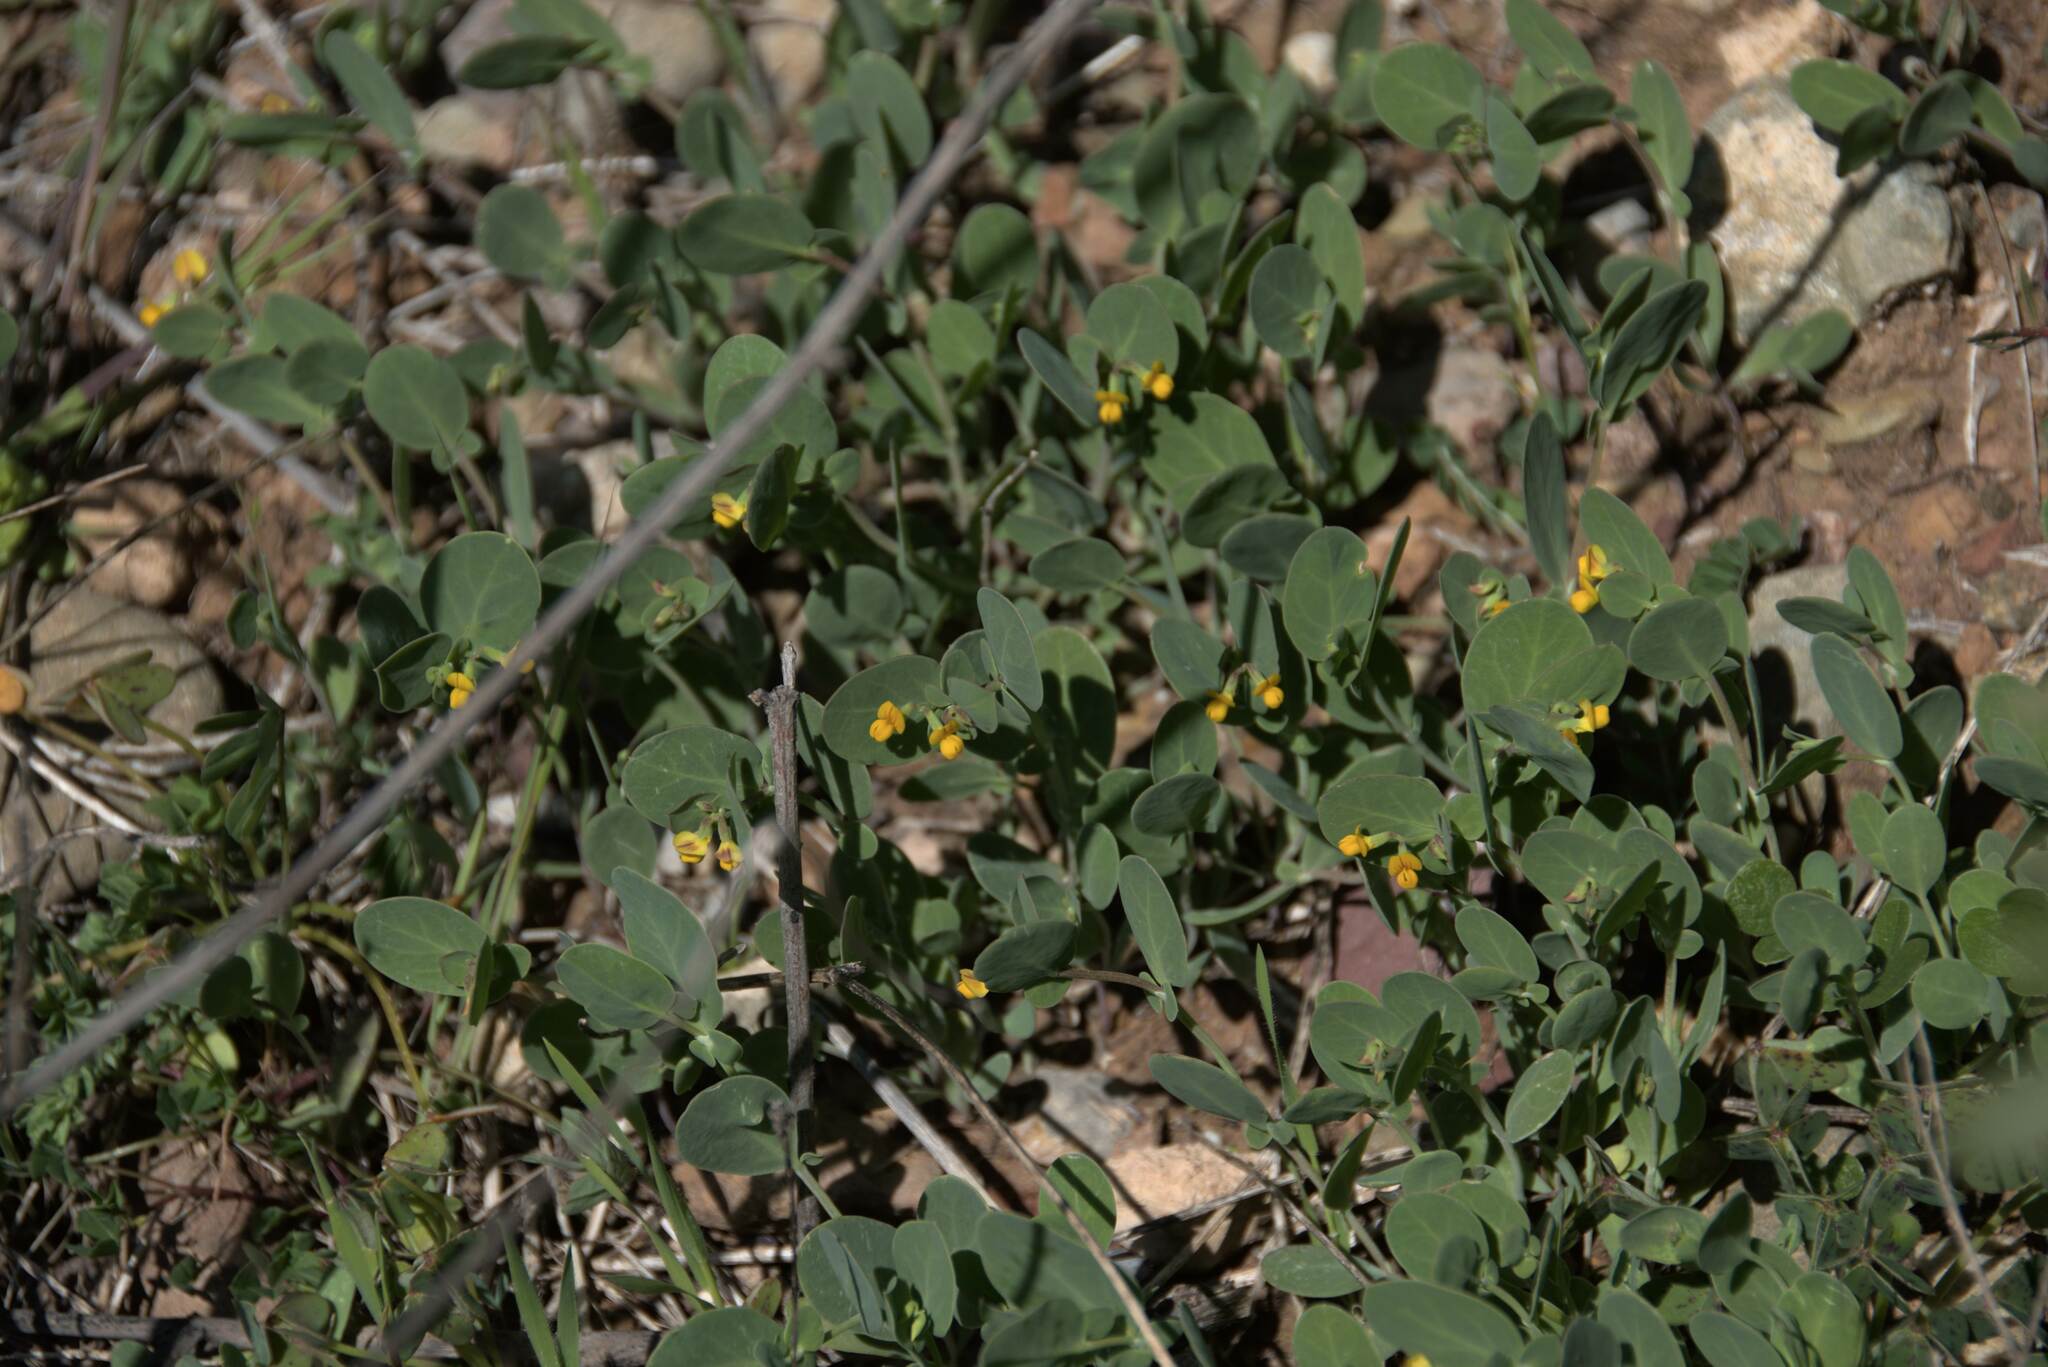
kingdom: Plantae
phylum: Tracheophyta
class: Magnoliopsida
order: Fabales
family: Fabaceae
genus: Coronilla
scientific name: Coronilla scorpioides
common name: Annual scorpion-vetch
